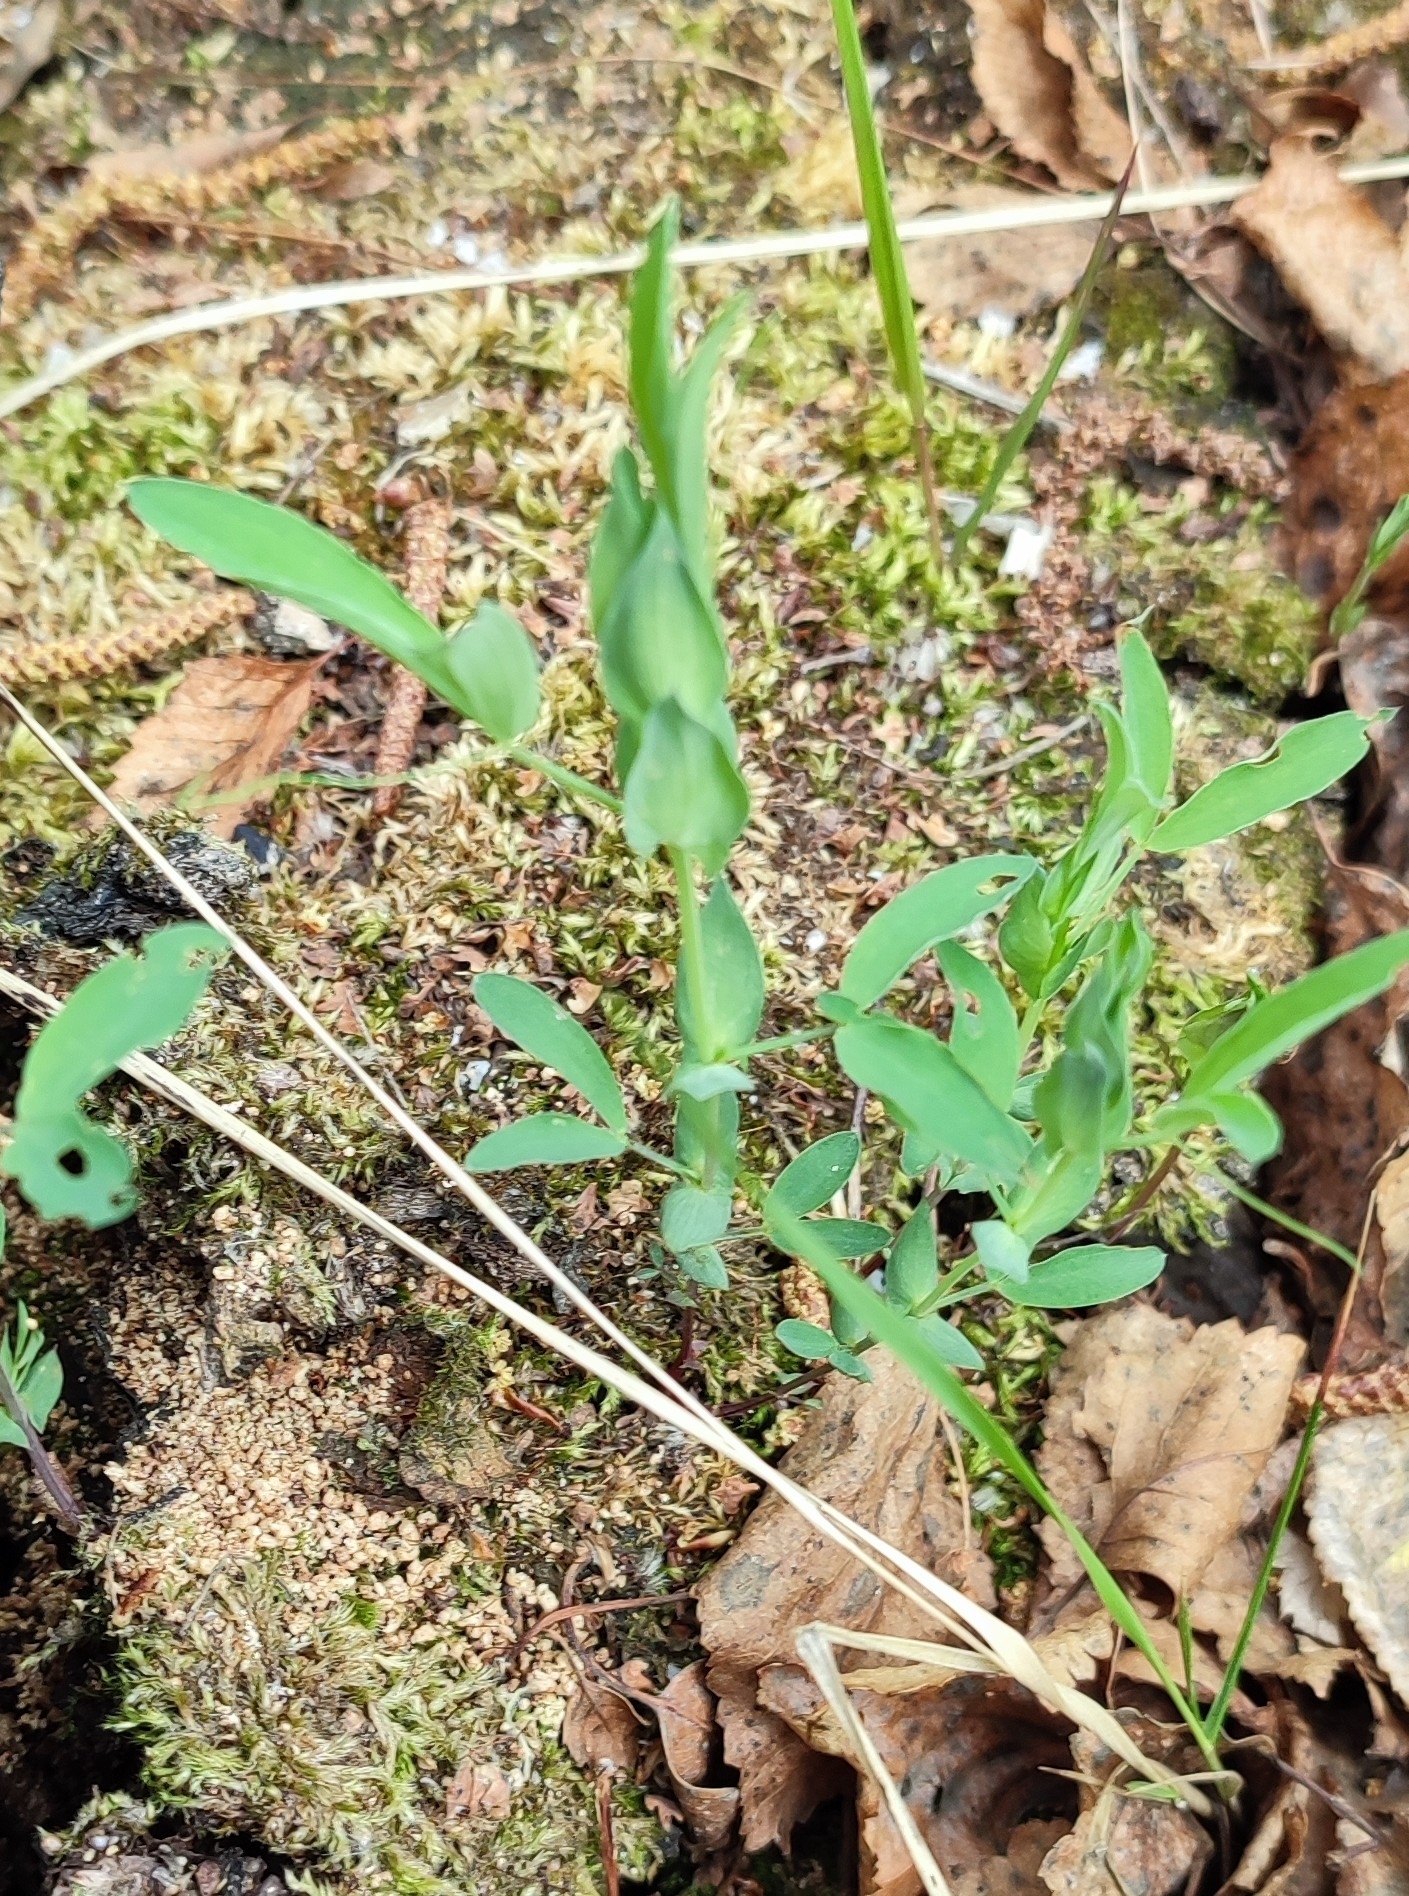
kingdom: Plantae
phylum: Tracheophyta
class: Magnoliopsida
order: Fabales
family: Fabaceae
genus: Lathyrus
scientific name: Lathyrus pratensis
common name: Meadow vetchling
